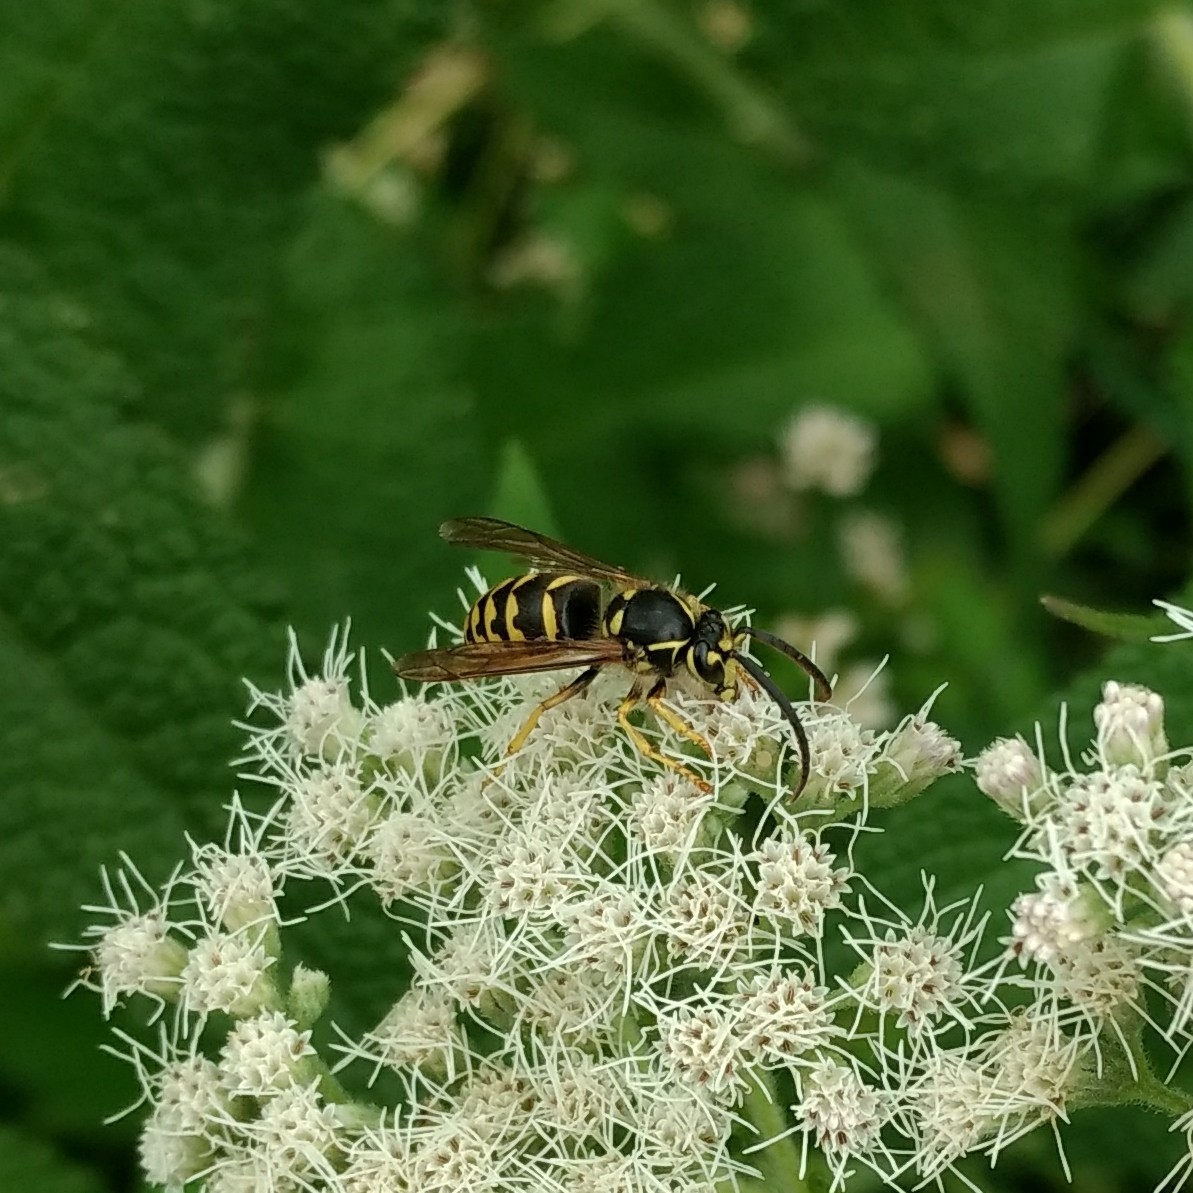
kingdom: Animalia
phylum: Arthropoda
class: Insecta
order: Hymenoptera
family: Vespidae
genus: Dolichovespula
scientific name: Dolichovespula arenaria
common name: Aerial yellowjacket
